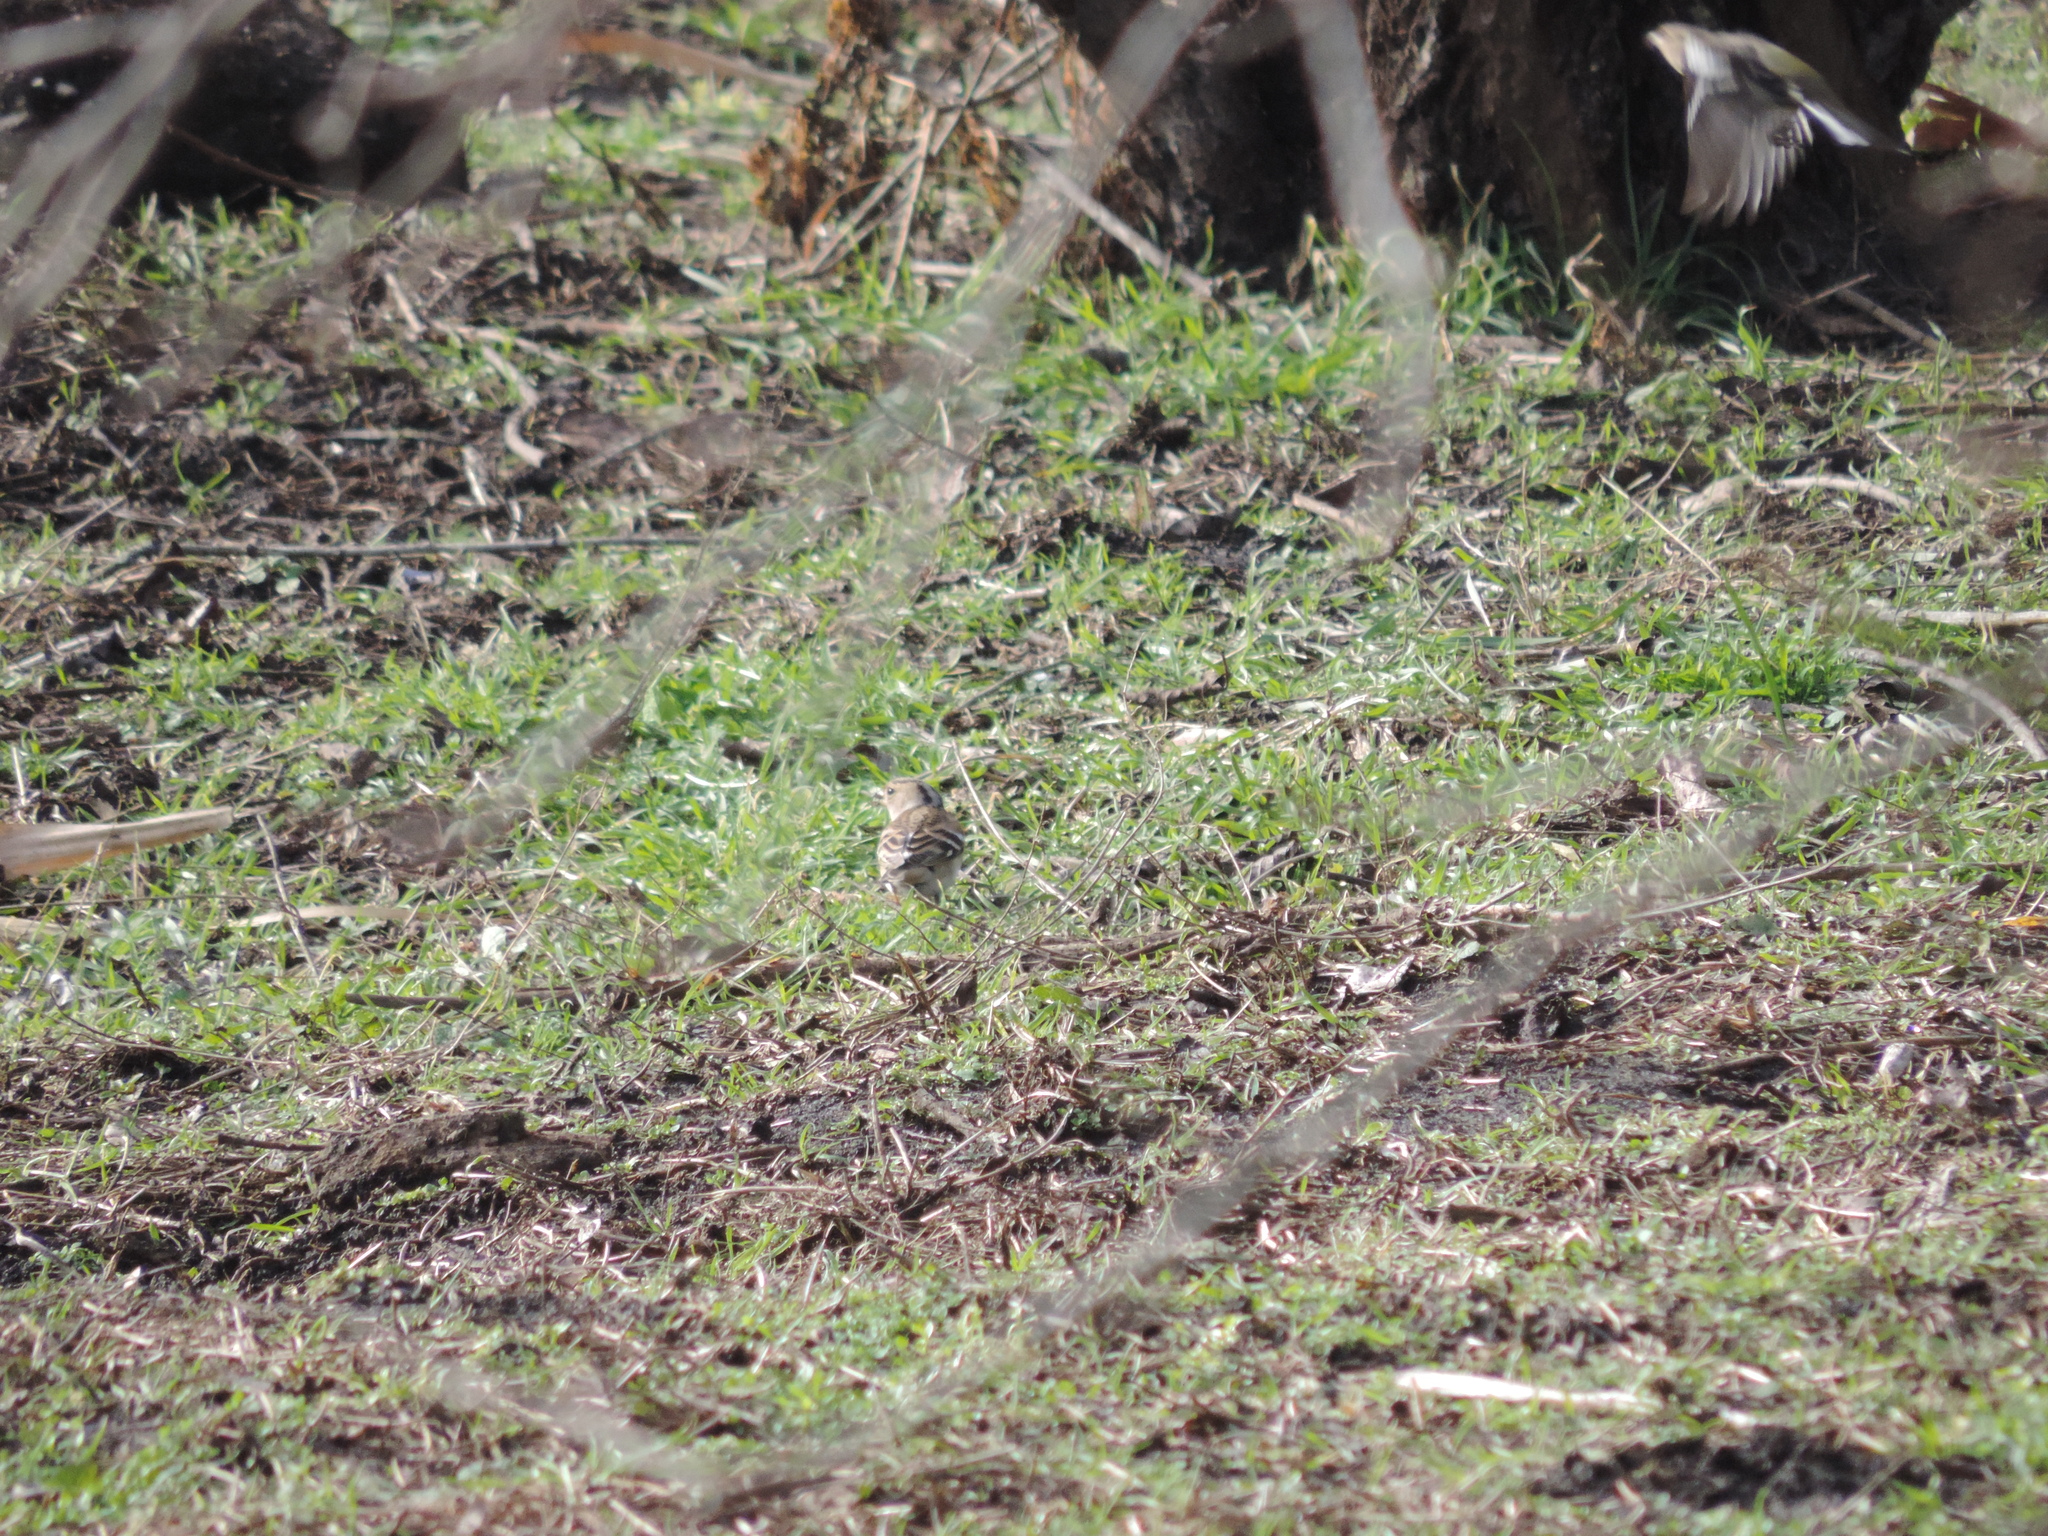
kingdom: Animalia
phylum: Chordata
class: Aves
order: Passeriformes
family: Fringillidae
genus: Fringilla
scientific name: Fringilla montifringilla
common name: Brambling
